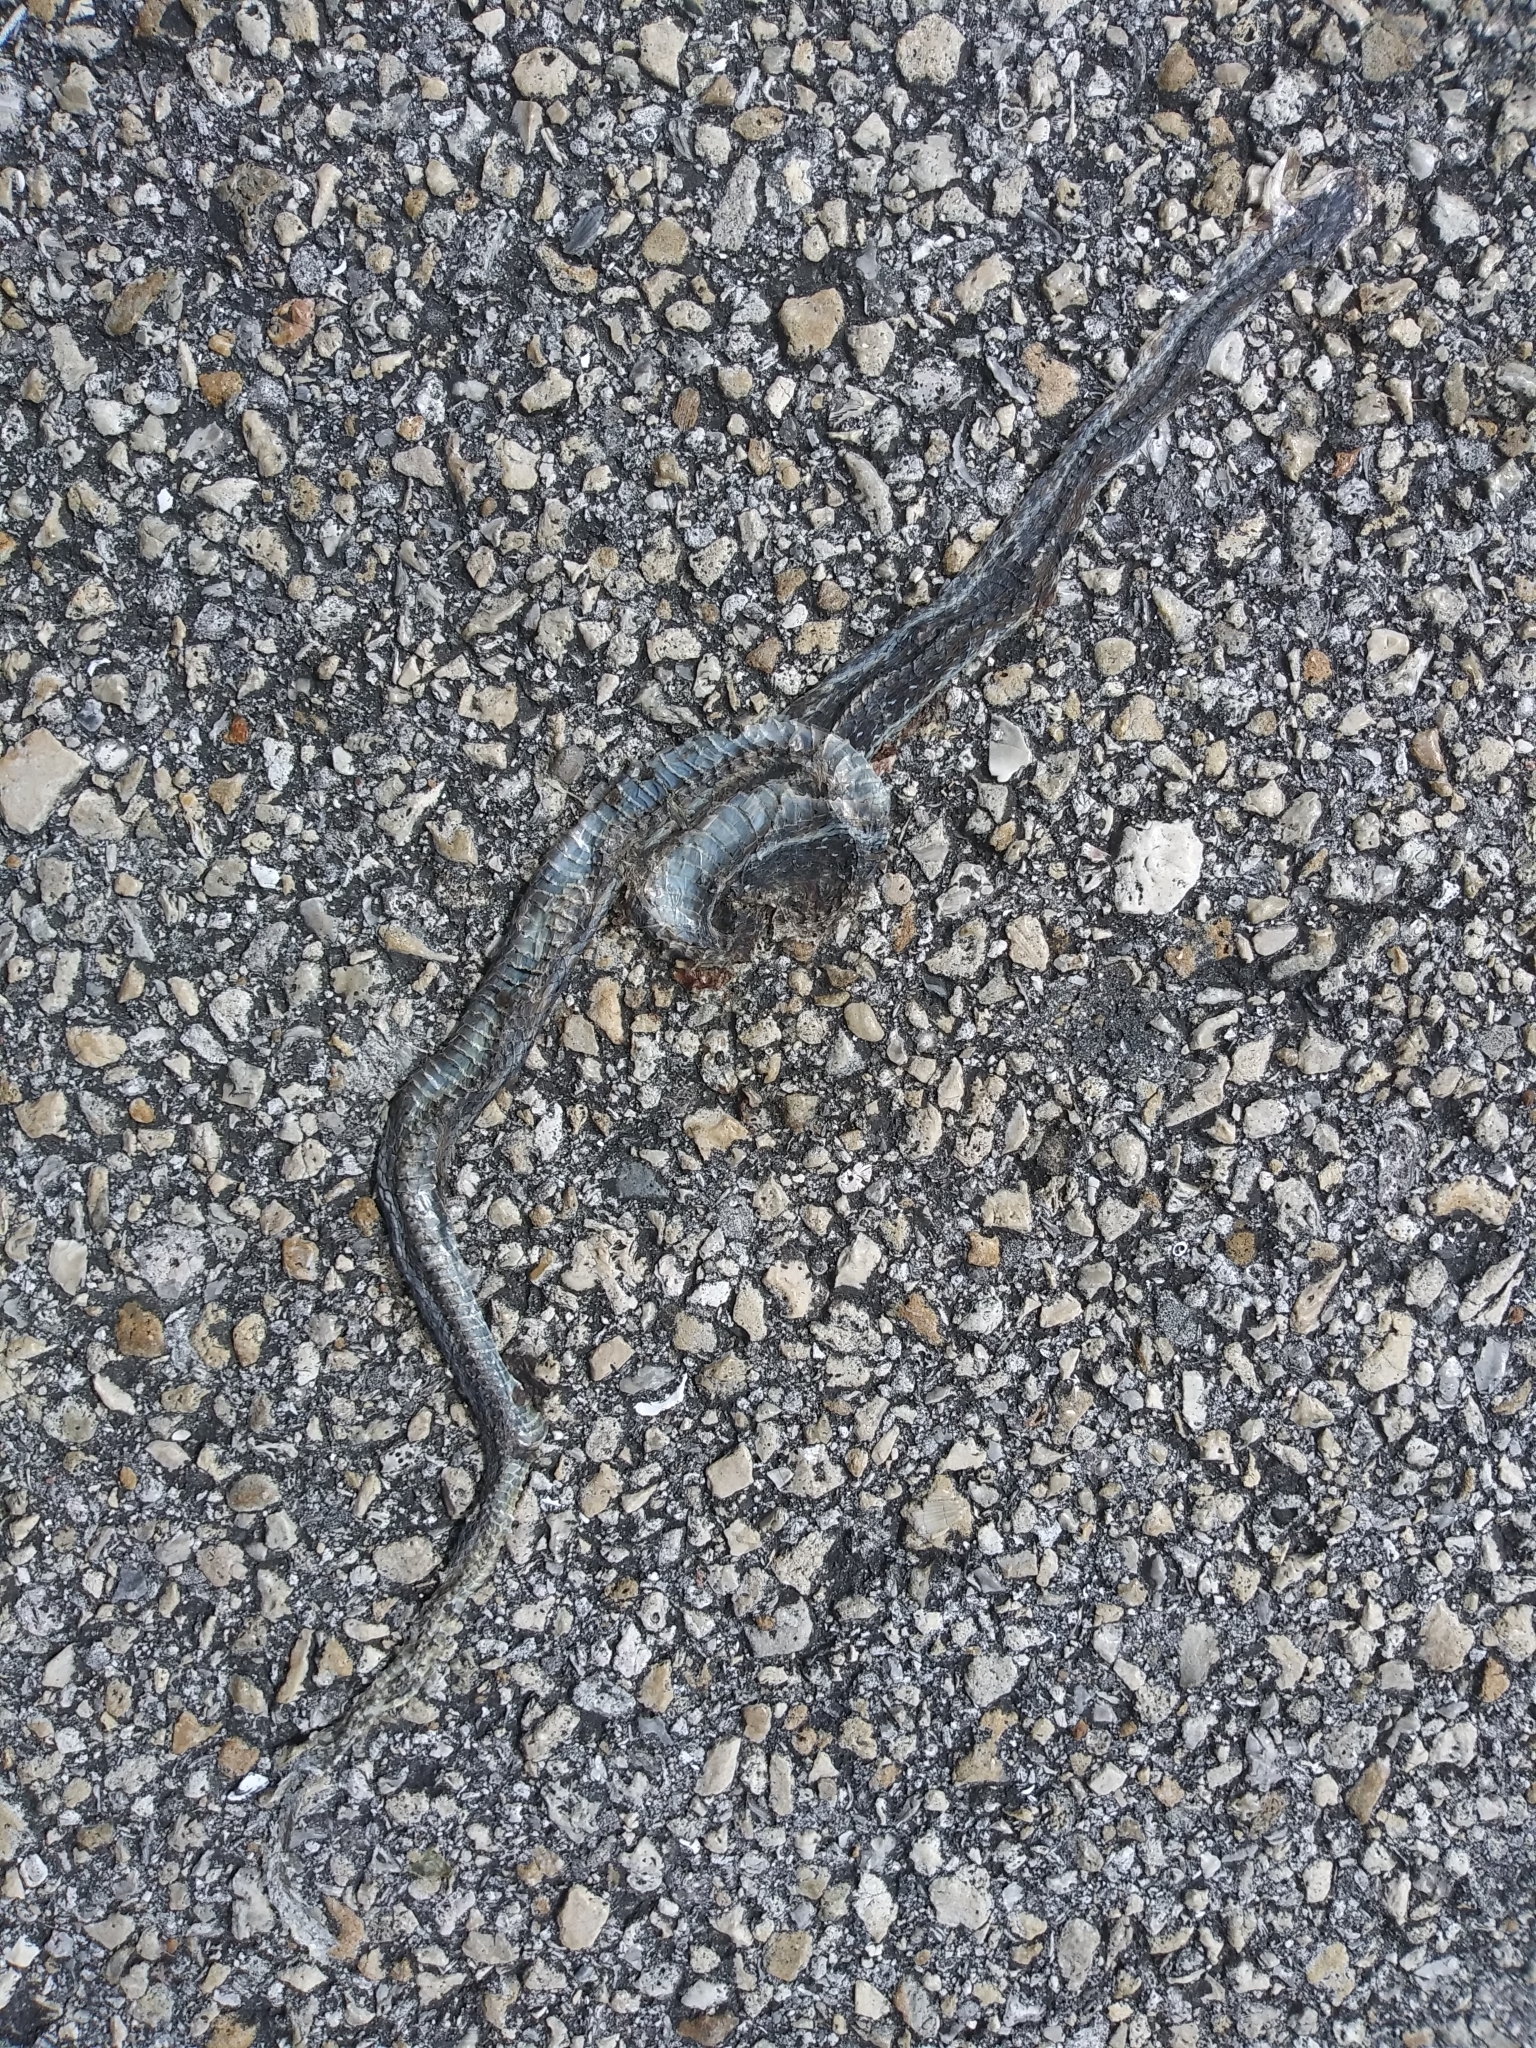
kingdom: Animalia
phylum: Chordata
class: Squamata
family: Colubridae
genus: Thamnophis
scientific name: Thamnophis saurita
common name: Eastern ribbonsnake
